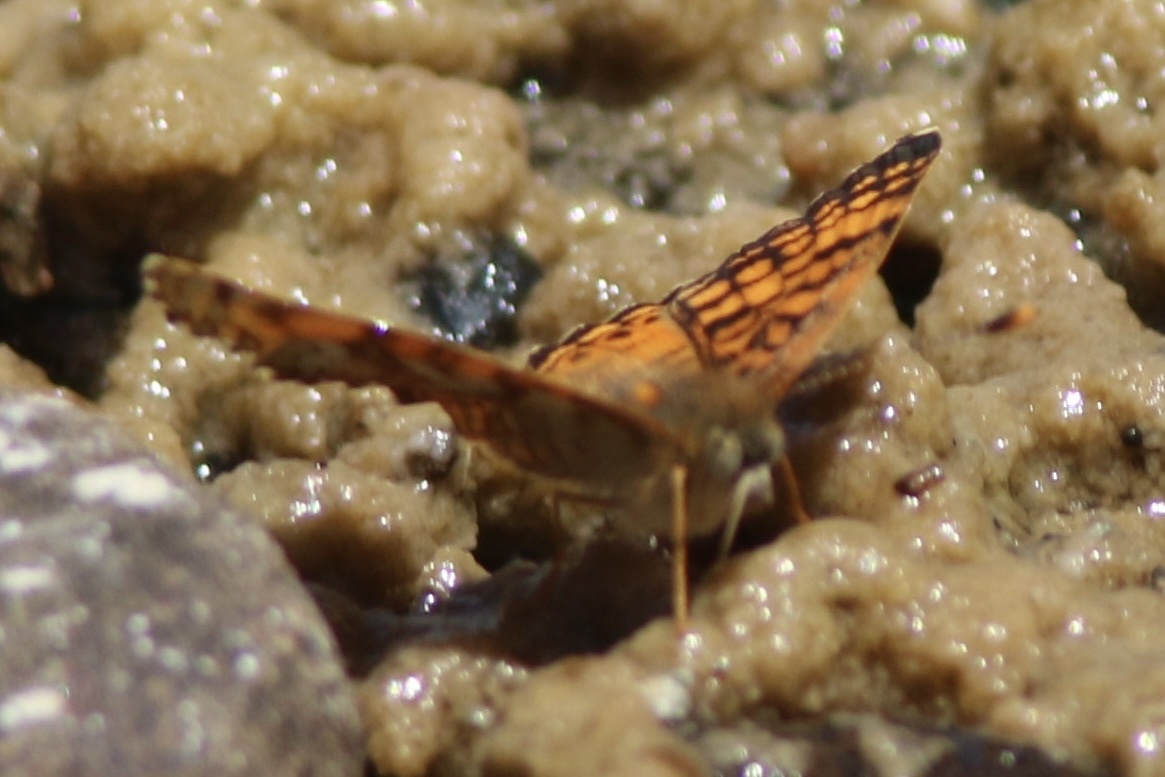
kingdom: Animalia
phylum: Arthropoda
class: Insecta
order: Lepidoptera
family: Nymphalidae
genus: Eresia
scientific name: Eresia aveyrona
